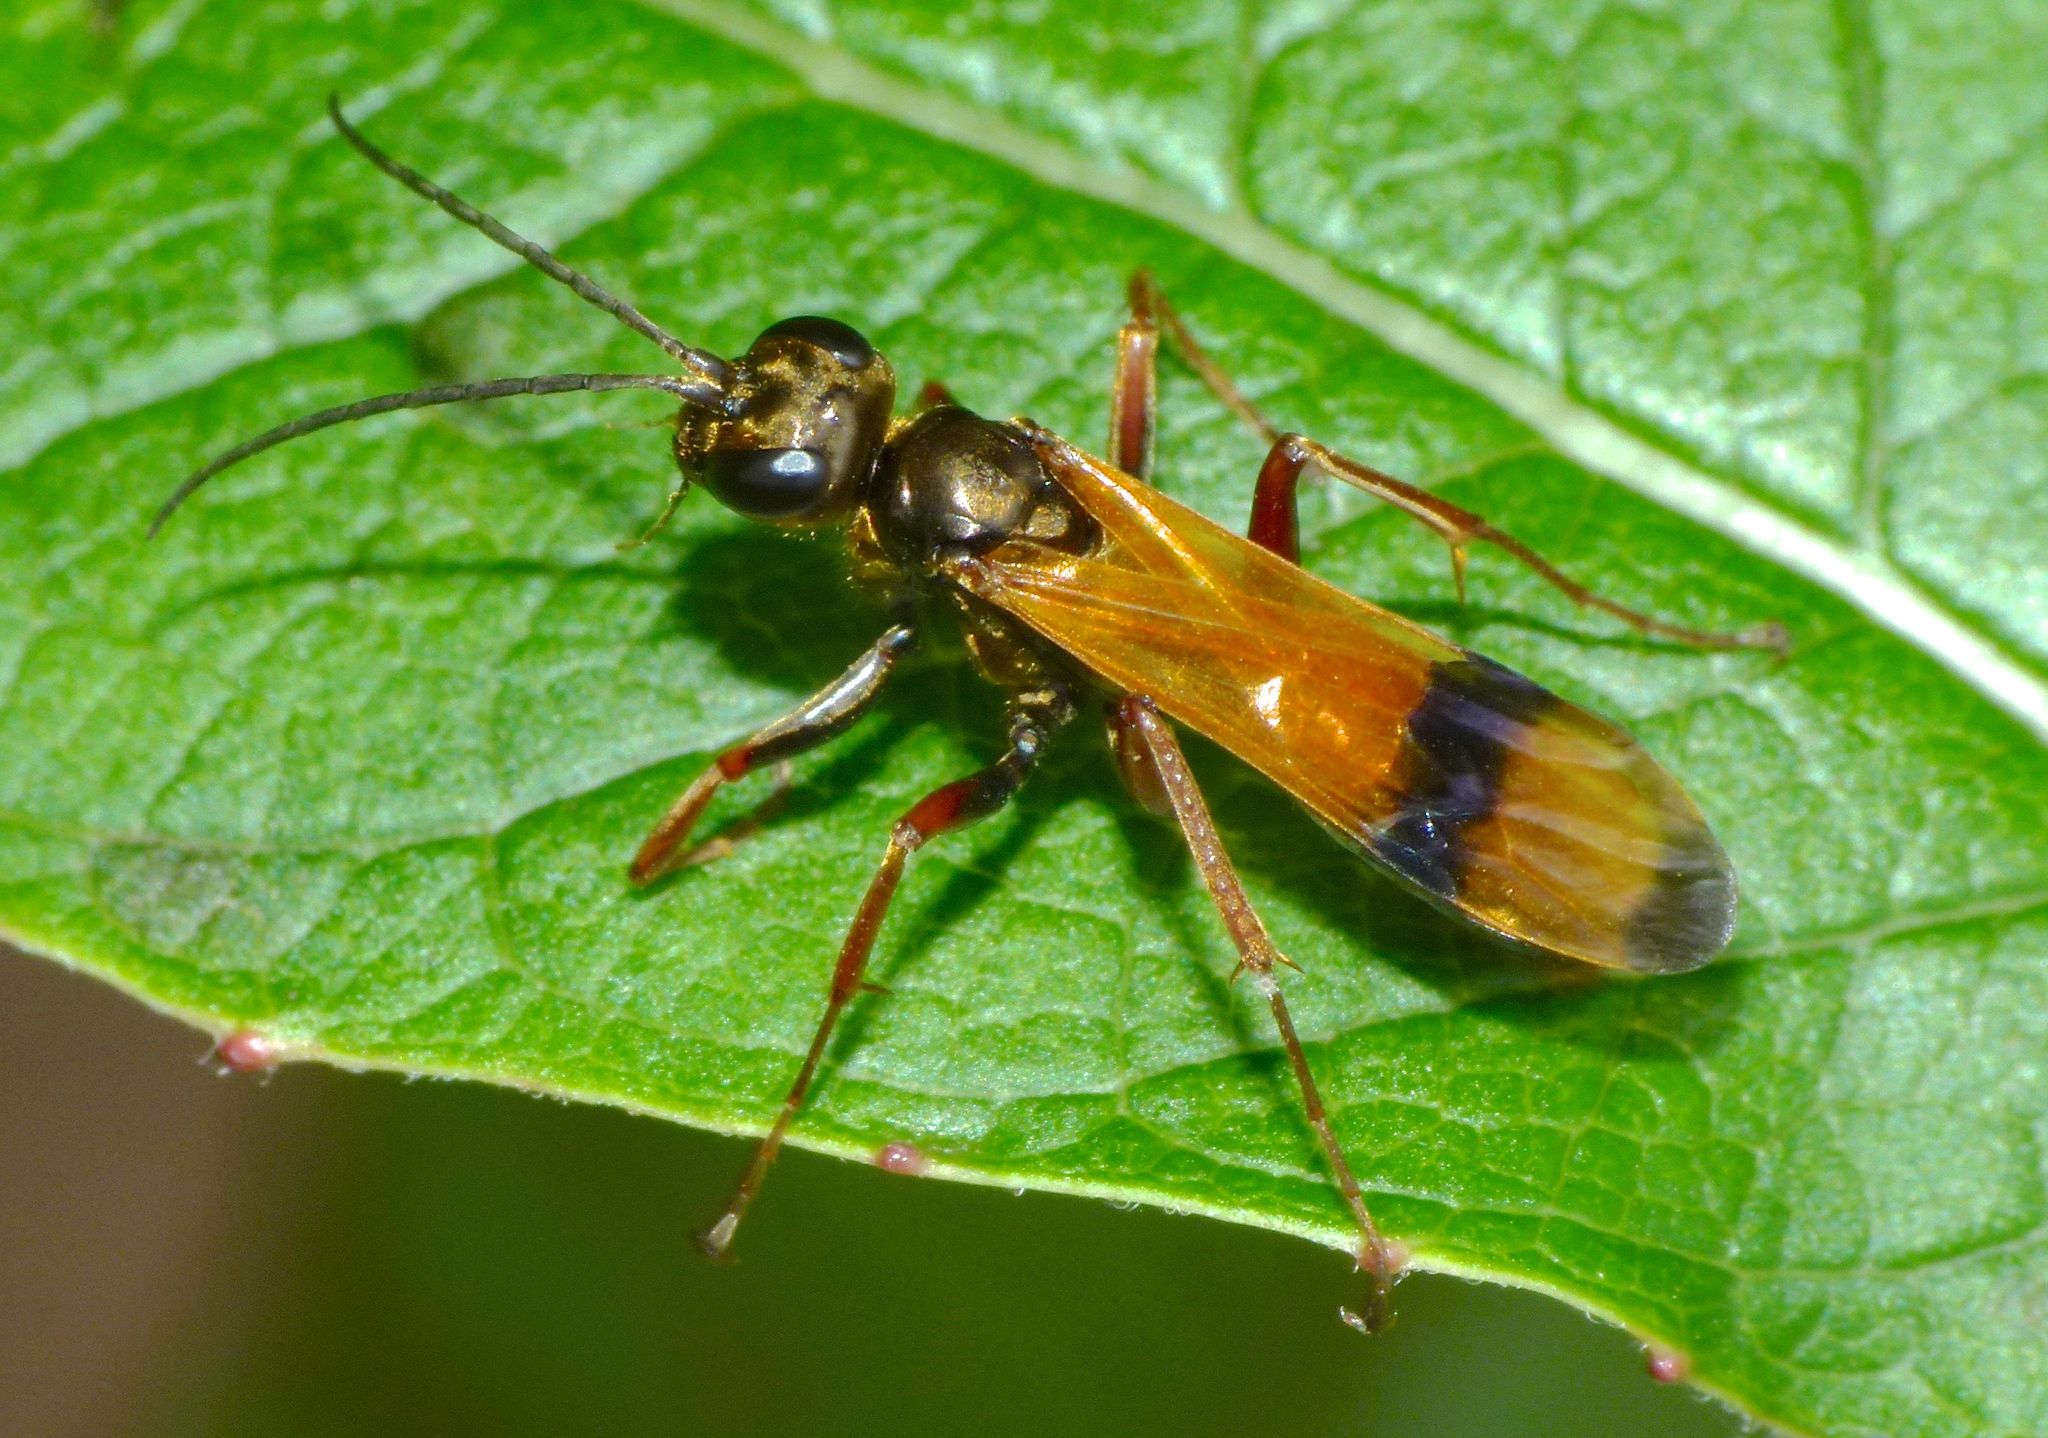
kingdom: Animalia
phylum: Arthropoda
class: Insecta
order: Hymenoptera
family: Pompilidae
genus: Sphictostethus
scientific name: Sphictostethus calvus
